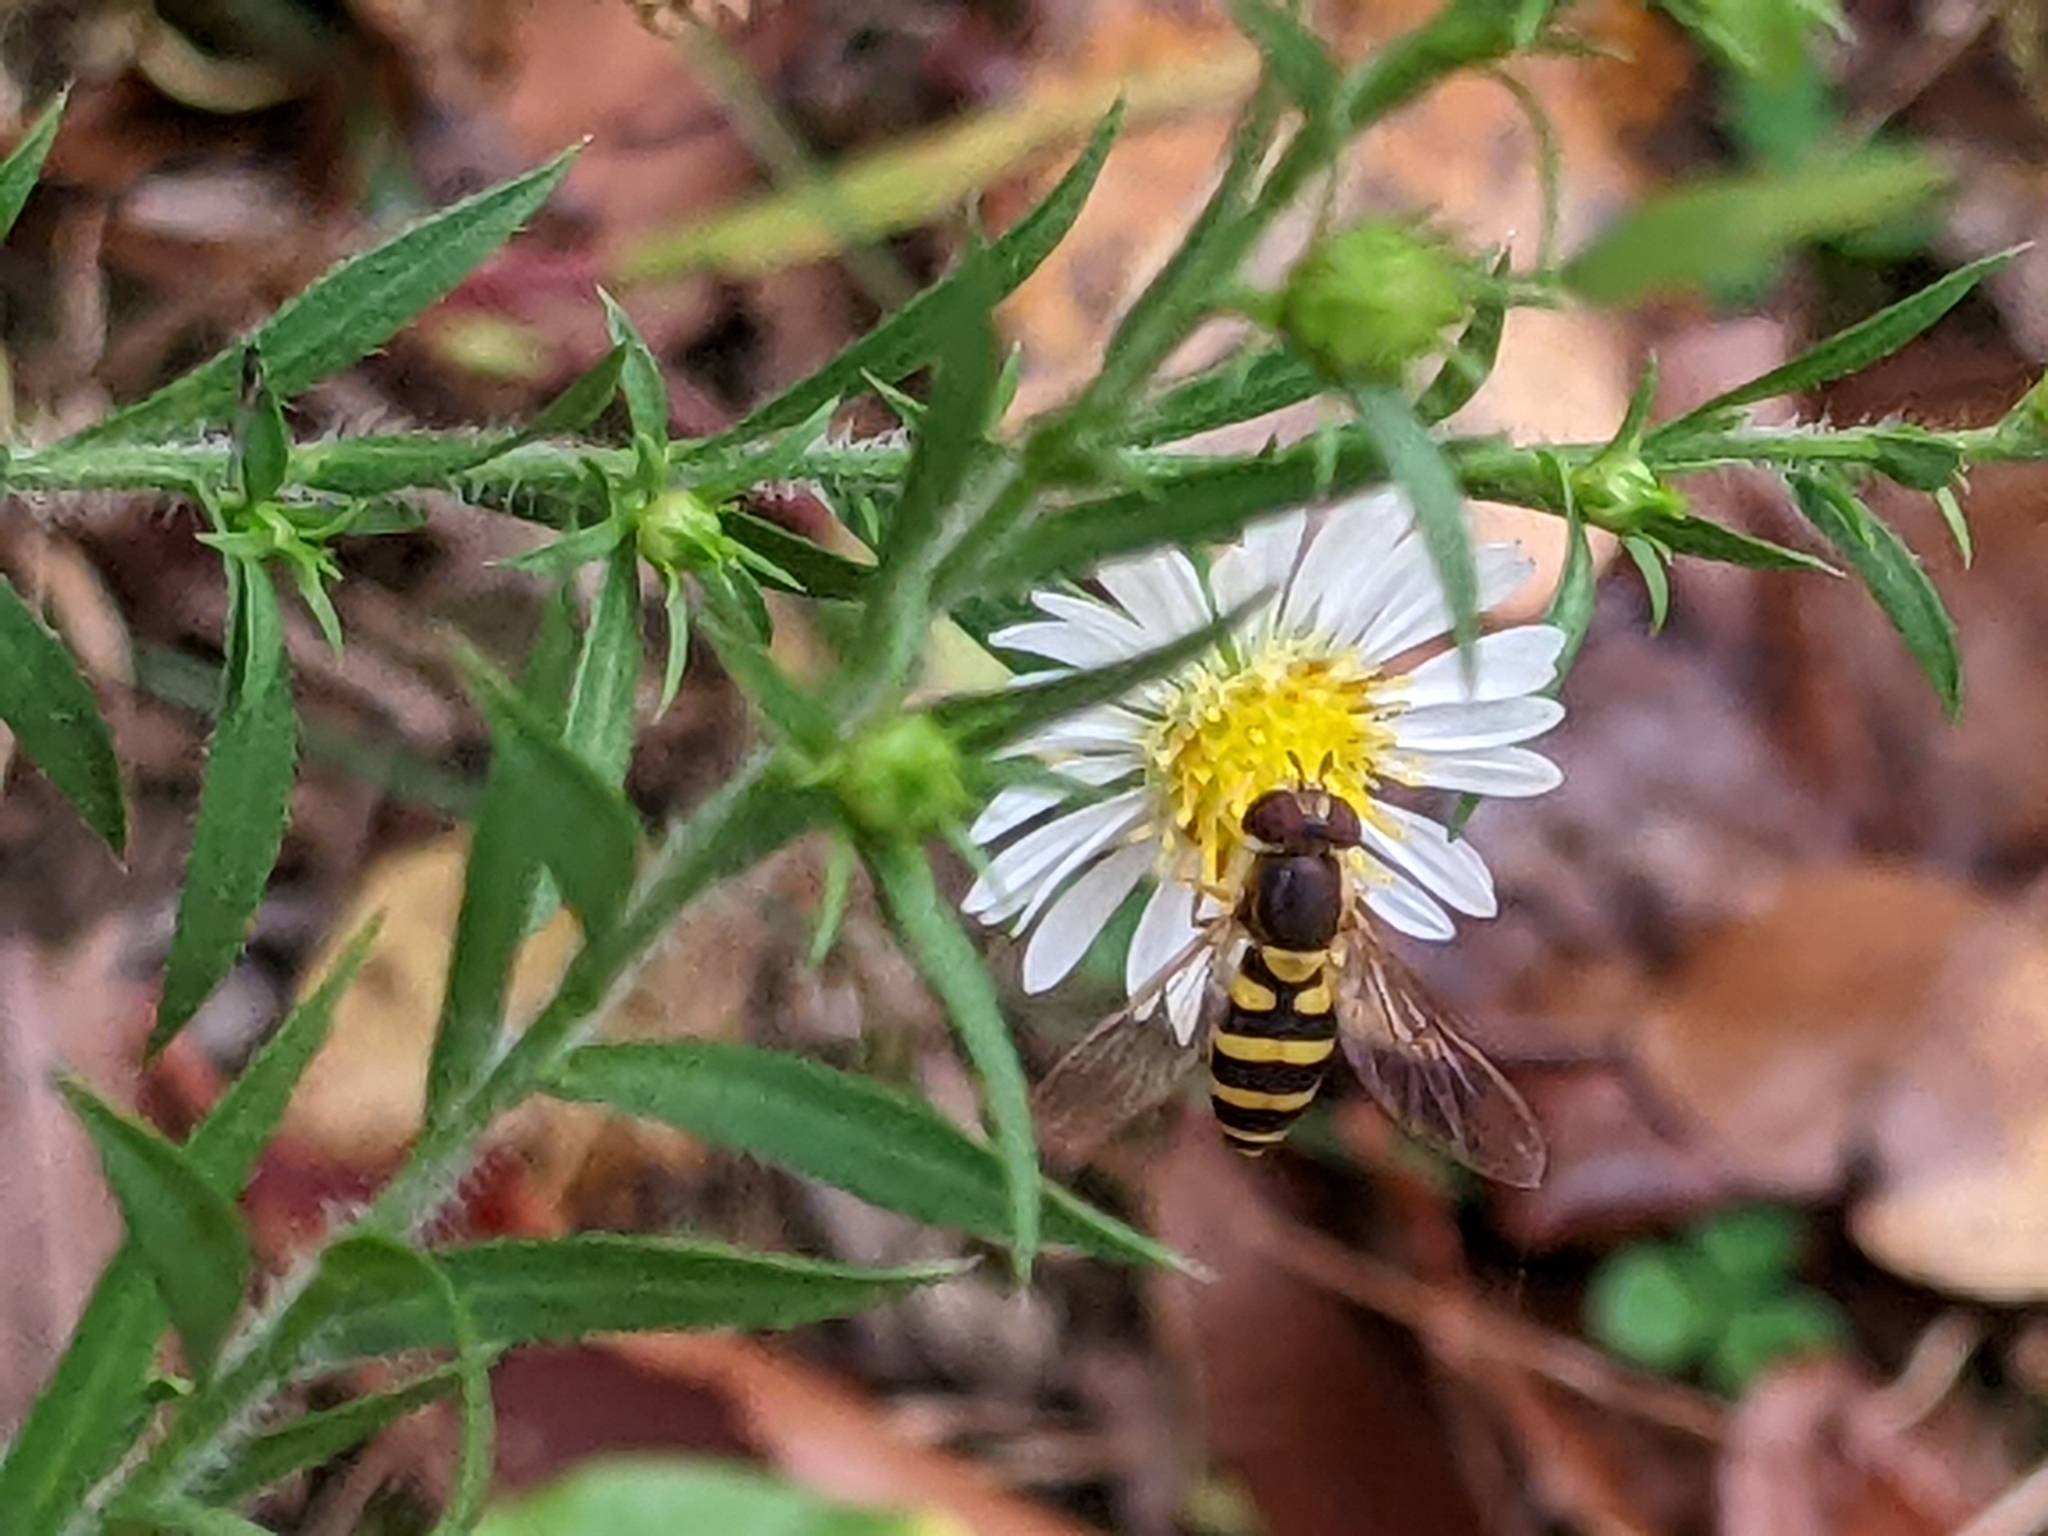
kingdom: Animalia
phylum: Arthropoda
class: Insecta
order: Diptera
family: Syrphidae
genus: Syrphus
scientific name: Syrphus
